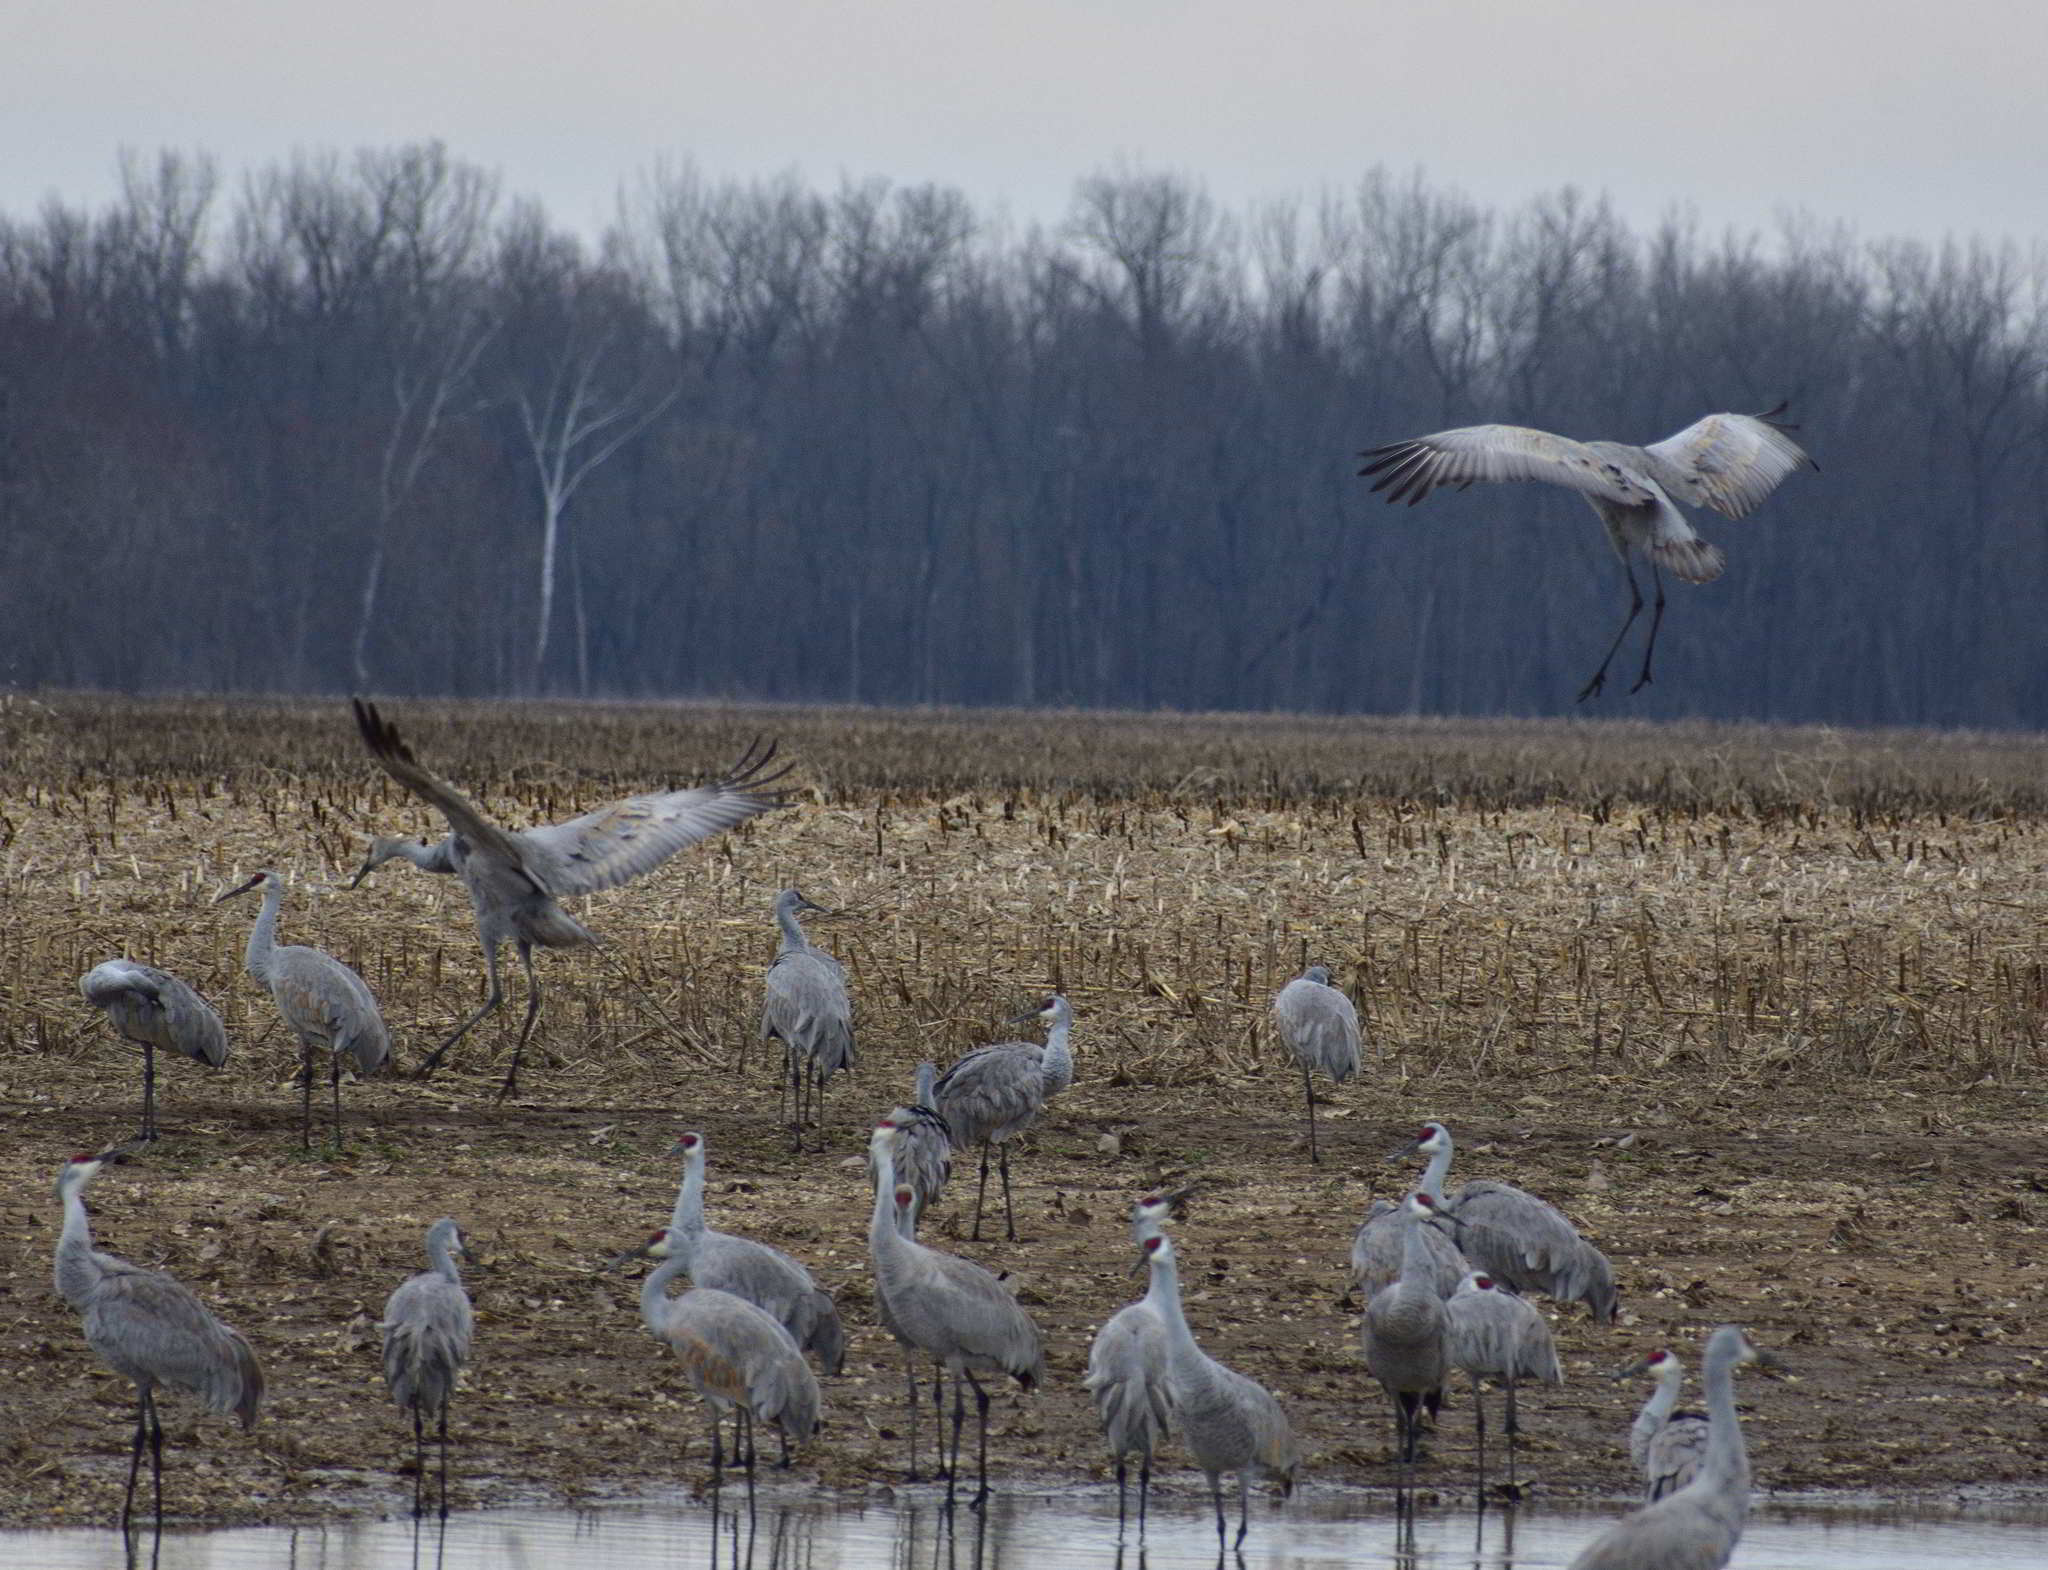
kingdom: Animalia
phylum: Chordata
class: Aves
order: Gruiformes
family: Gruidae
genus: Grus
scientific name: Grus canadensis
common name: Sandhill crane
